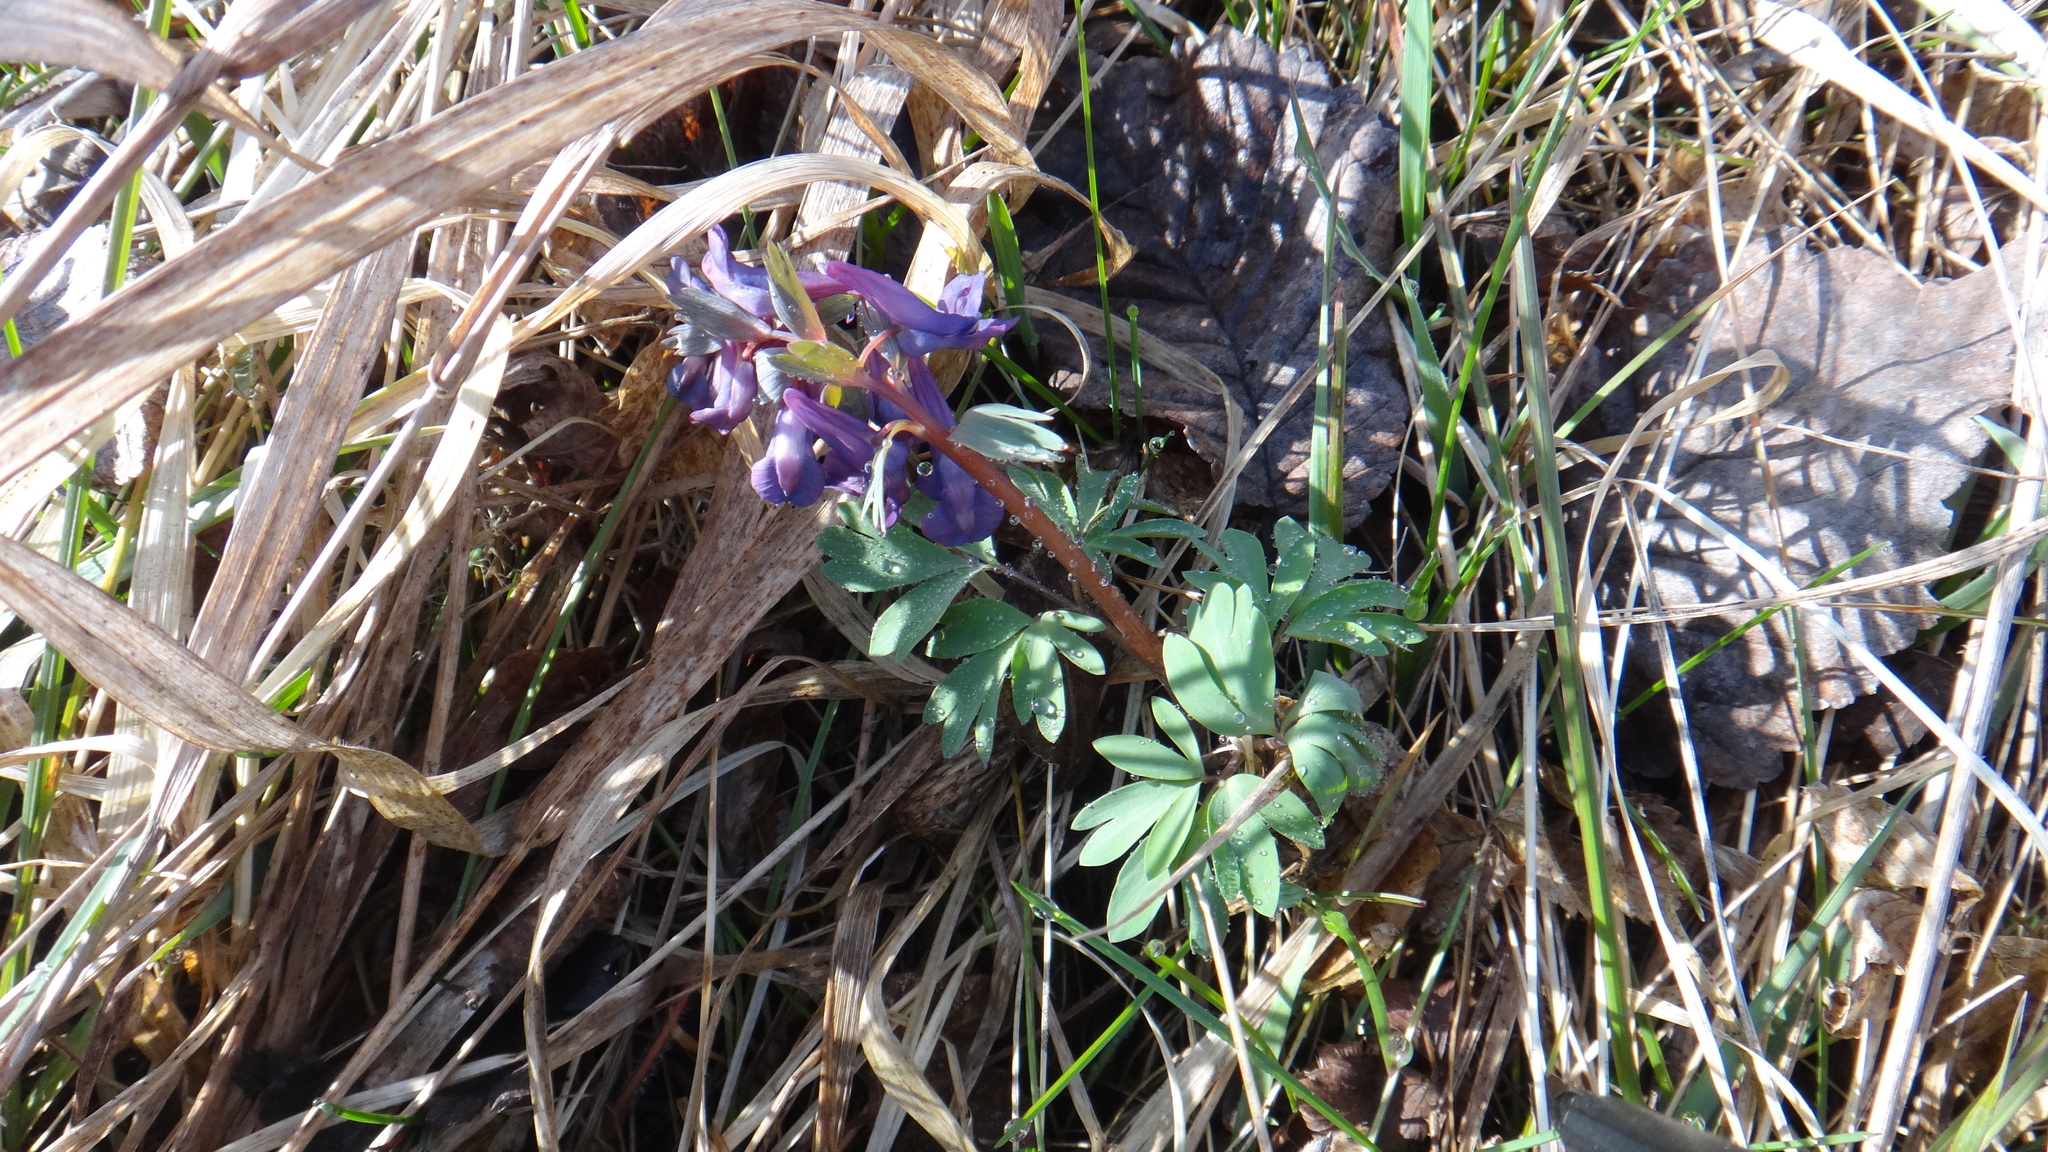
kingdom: Plantae
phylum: Tracheophyta
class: Magnoliopsida
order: Ranunculales
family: Papaveraceae
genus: Corydalis
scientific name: Corydalis solida
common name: Bird-in-a-bush
